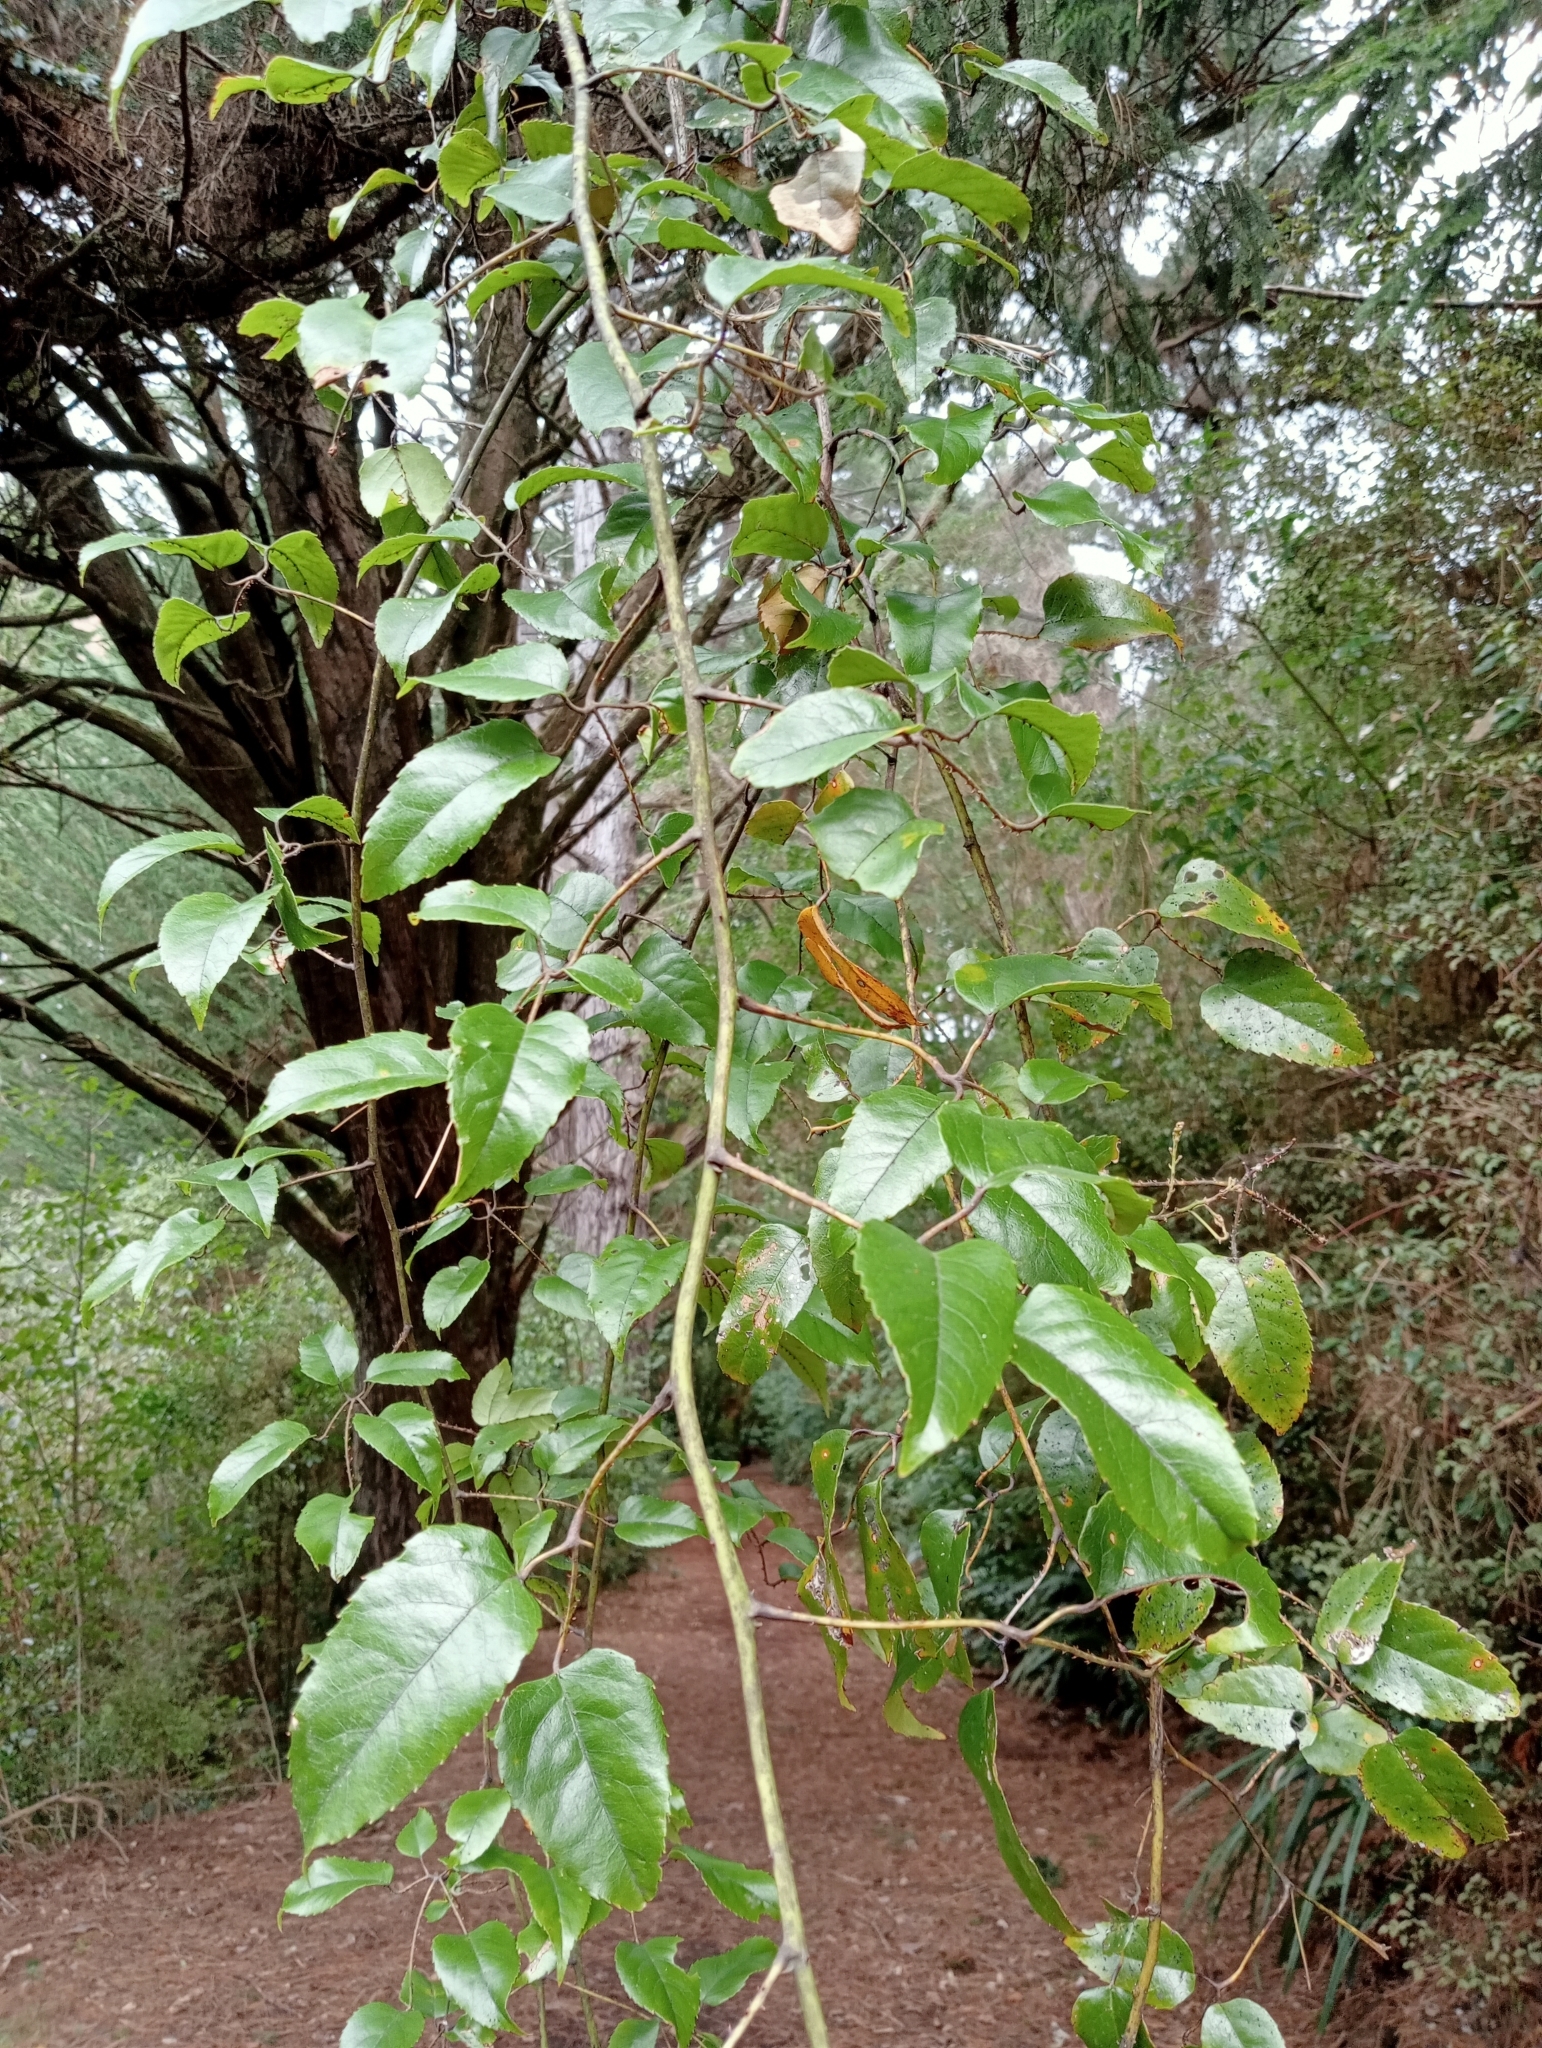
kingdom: Plantae
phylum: Tracheophyta
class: Magnoliopsida
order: Rosales
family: Rosaceae
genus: Rubus
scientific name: Rubus cissoides
